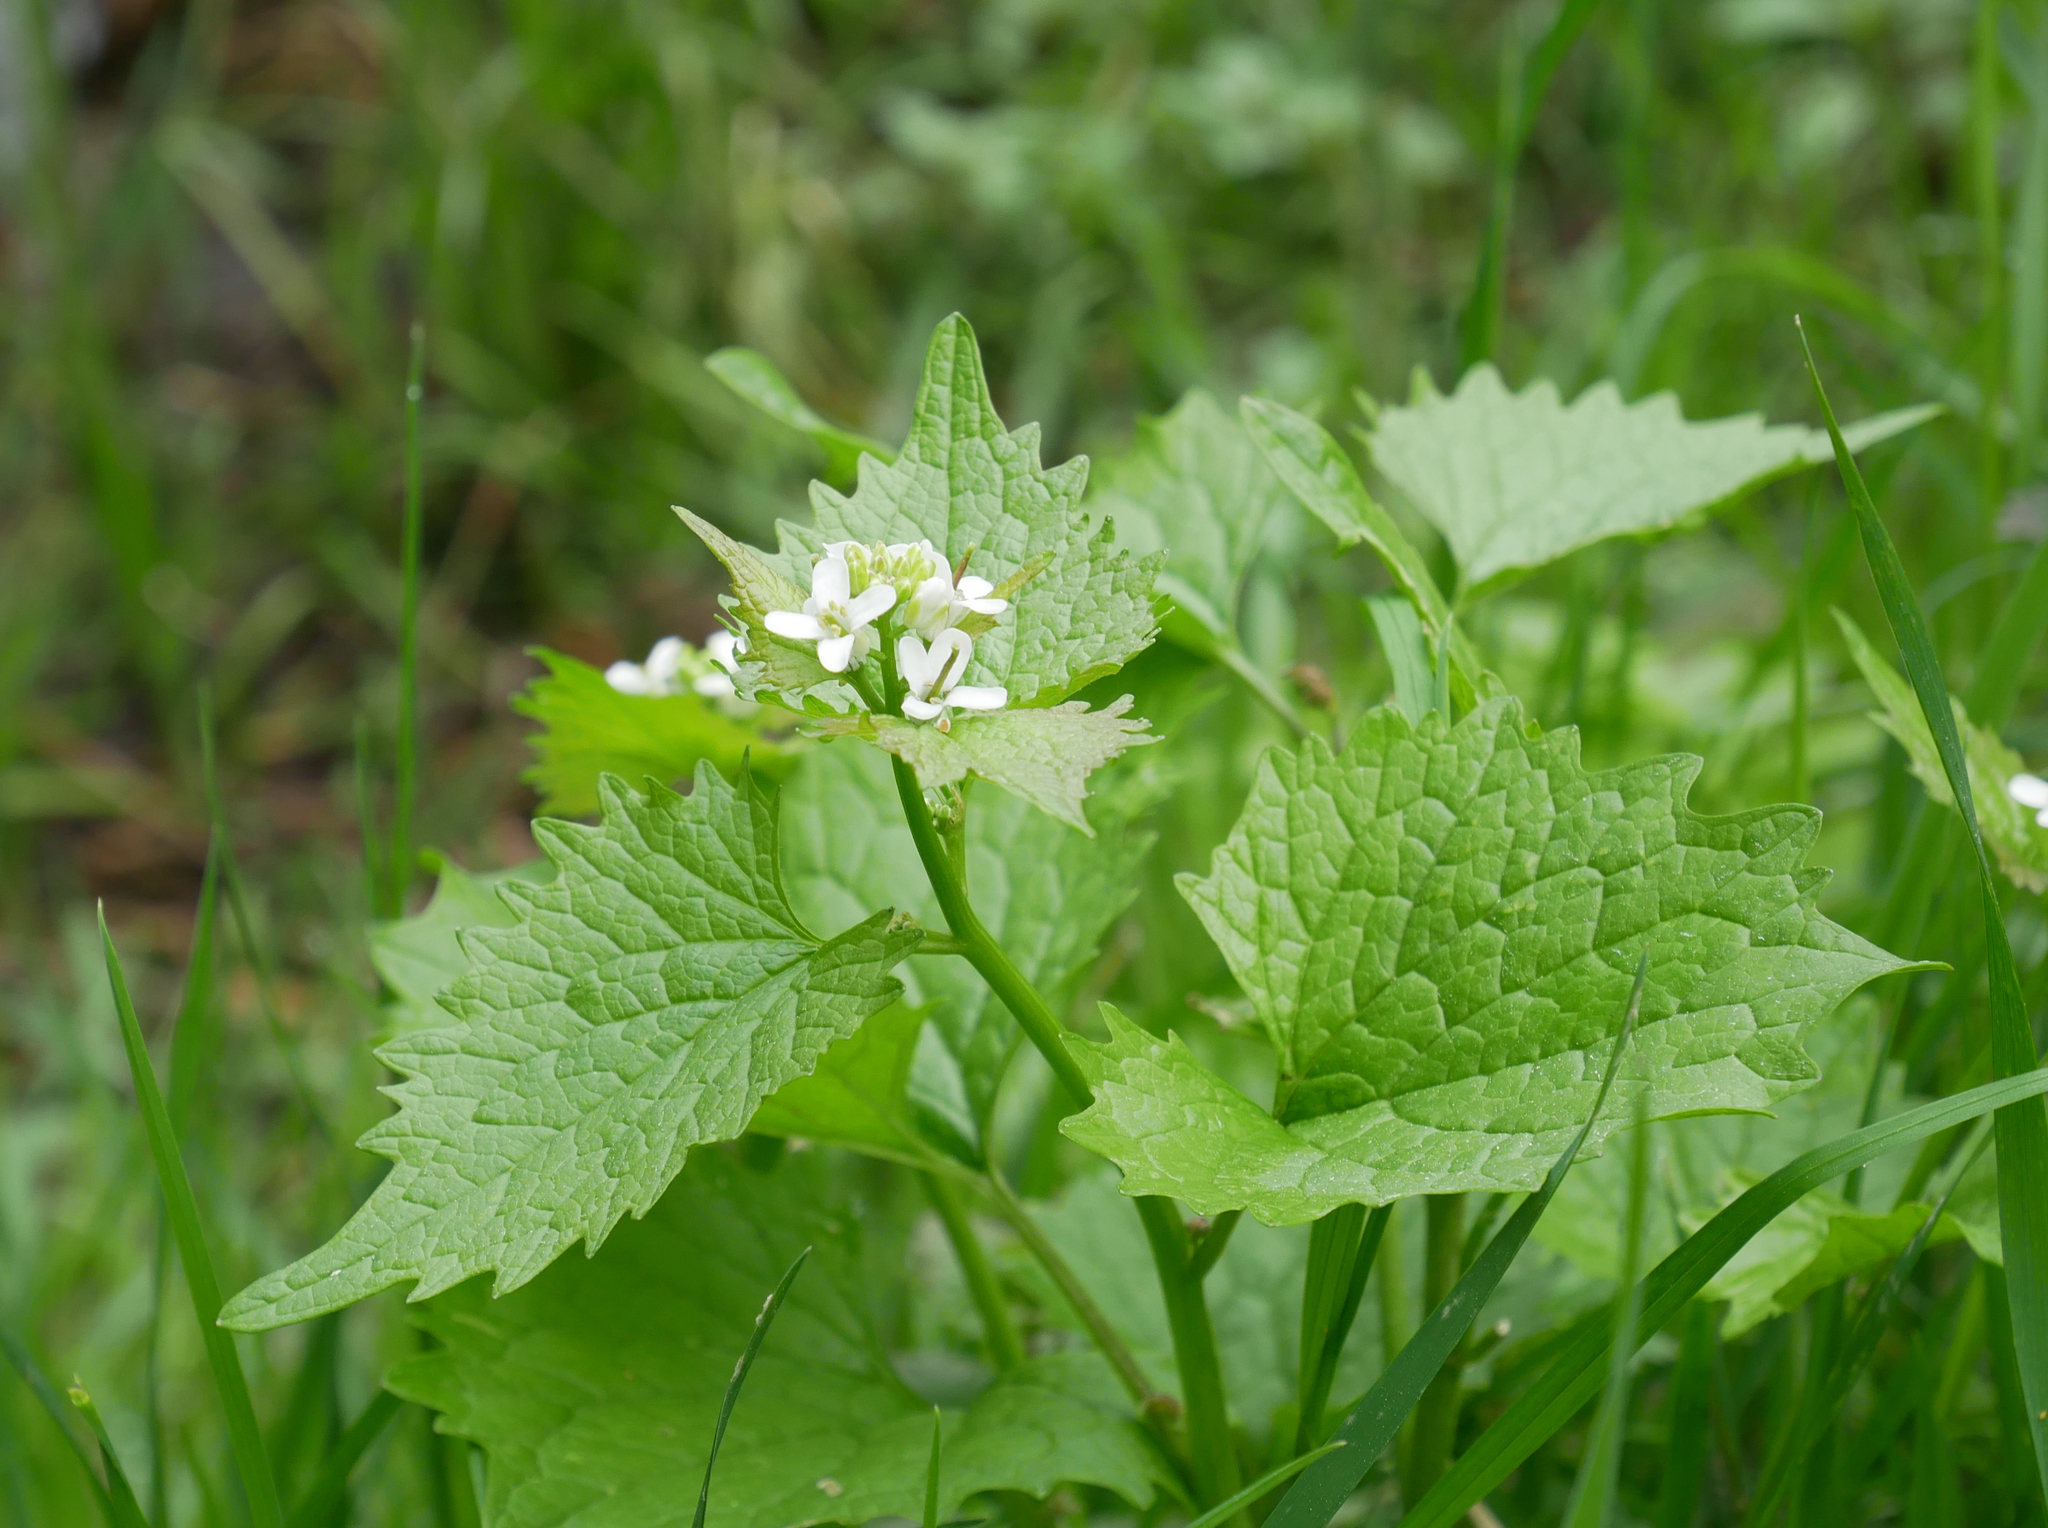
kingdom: Plantae
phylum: Tracheophyta
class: Magnoliopsida
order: Brassicales
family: Brassicaceae
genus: Alliaria
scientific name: Alliaria petiolata
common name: Garlic mustard
